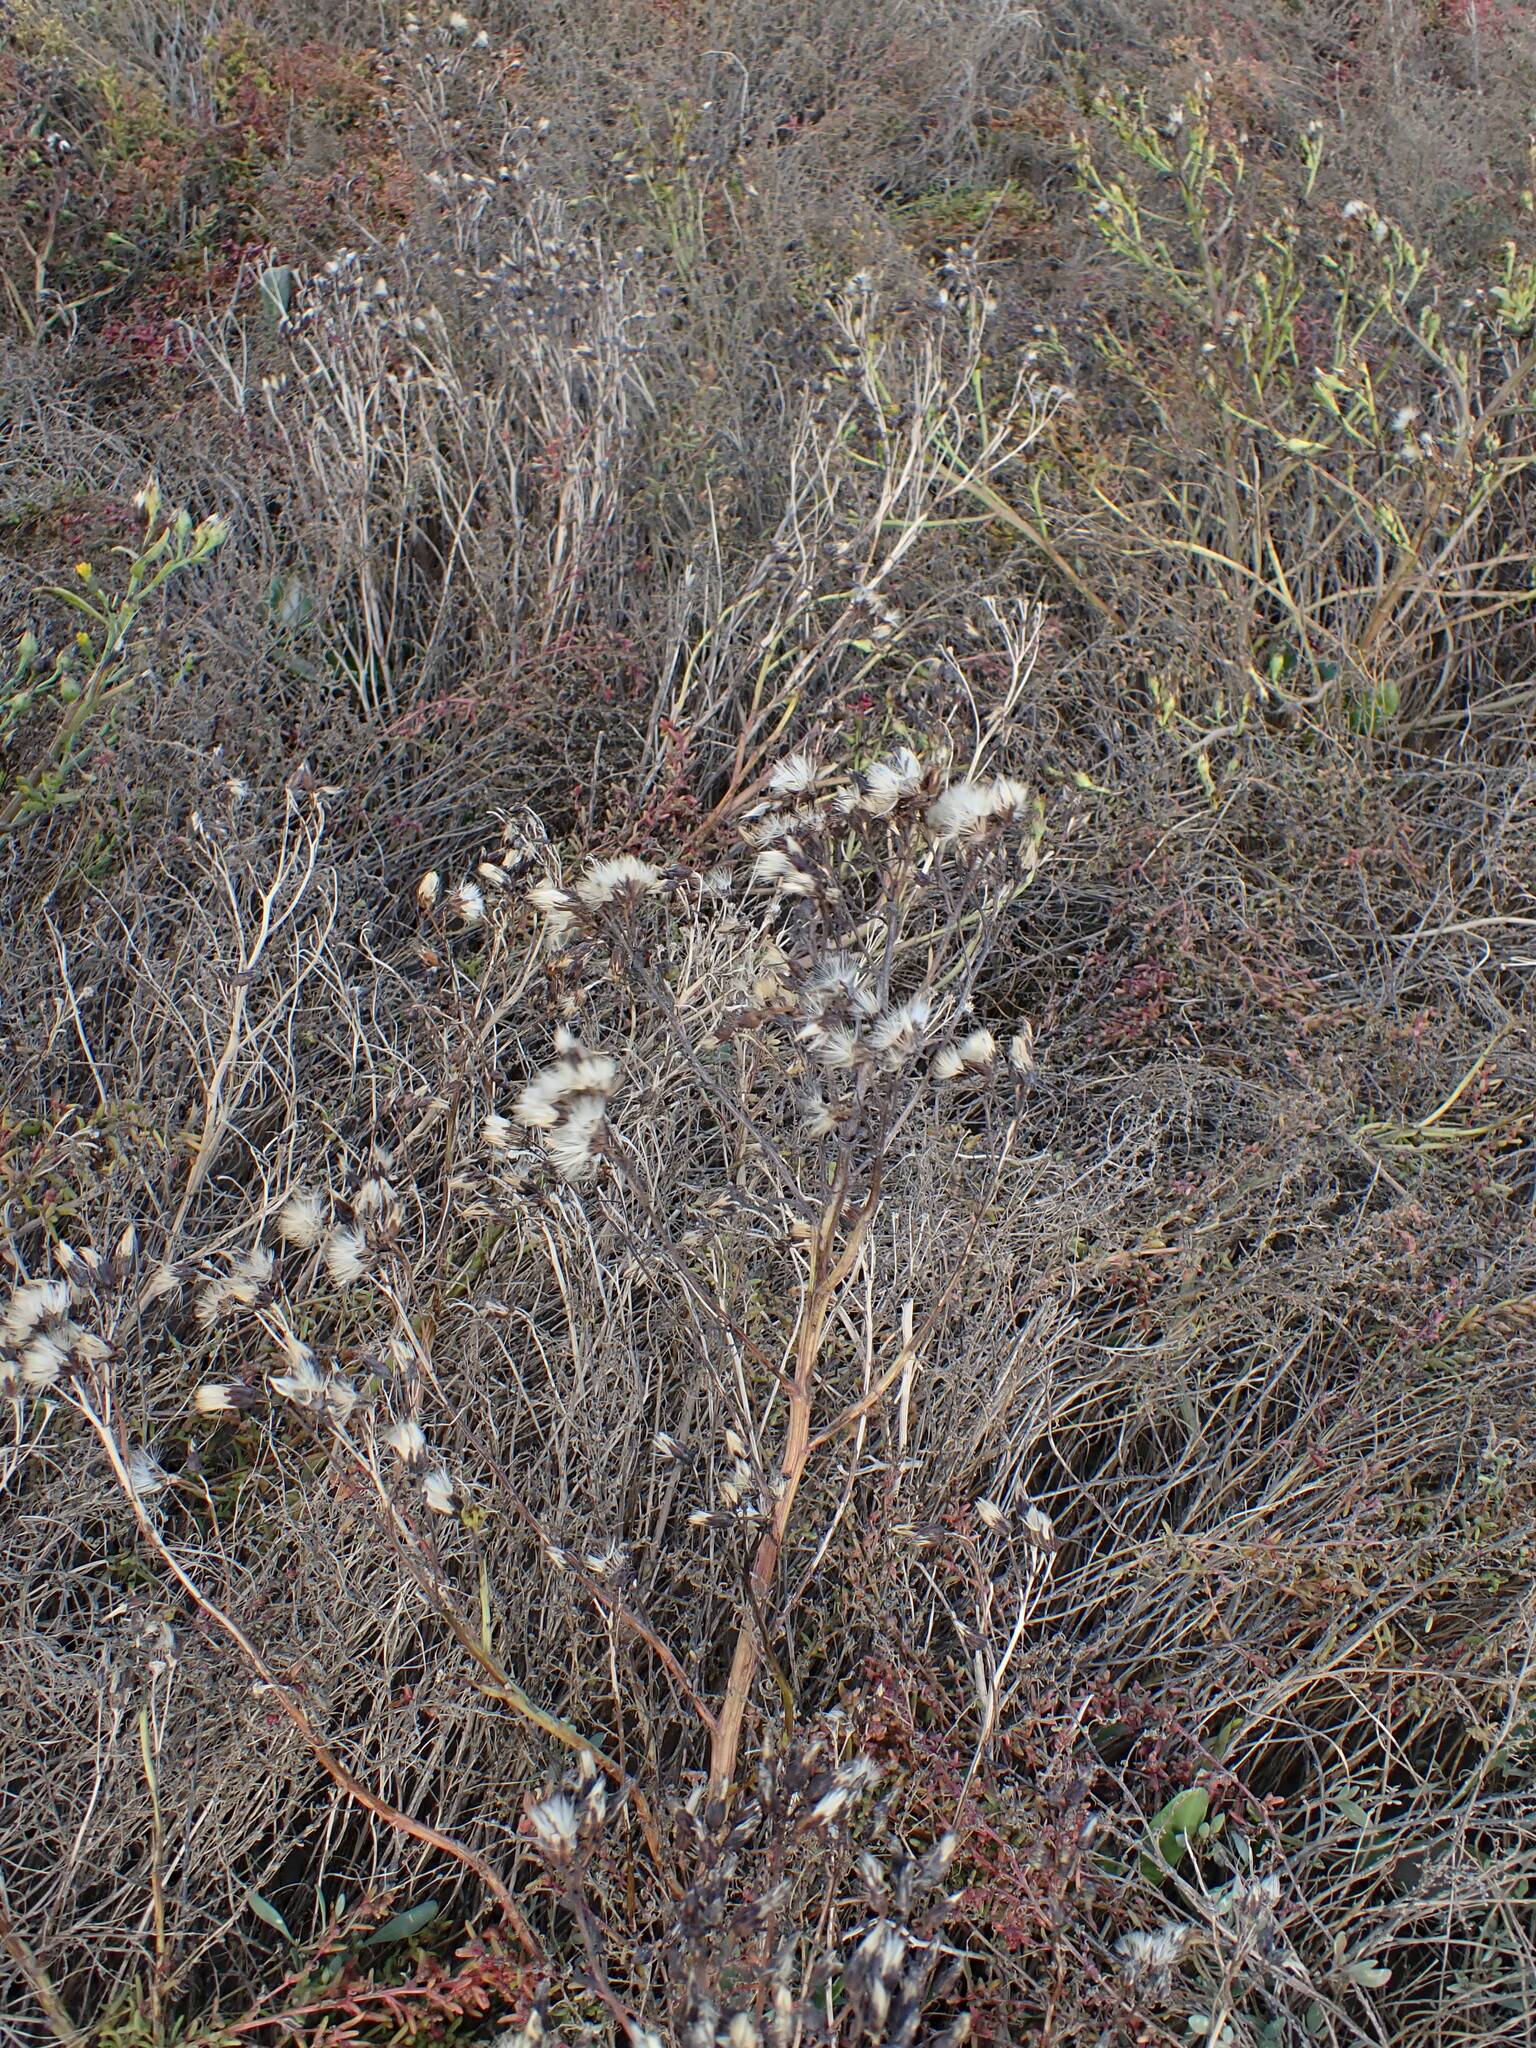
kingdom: Plantae
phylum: Tracheophyta
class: Magnoliopsida
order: Asterales
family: Asteraceae
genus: Tripolium
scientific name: Tripolium pannonicum
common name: Sea aster
